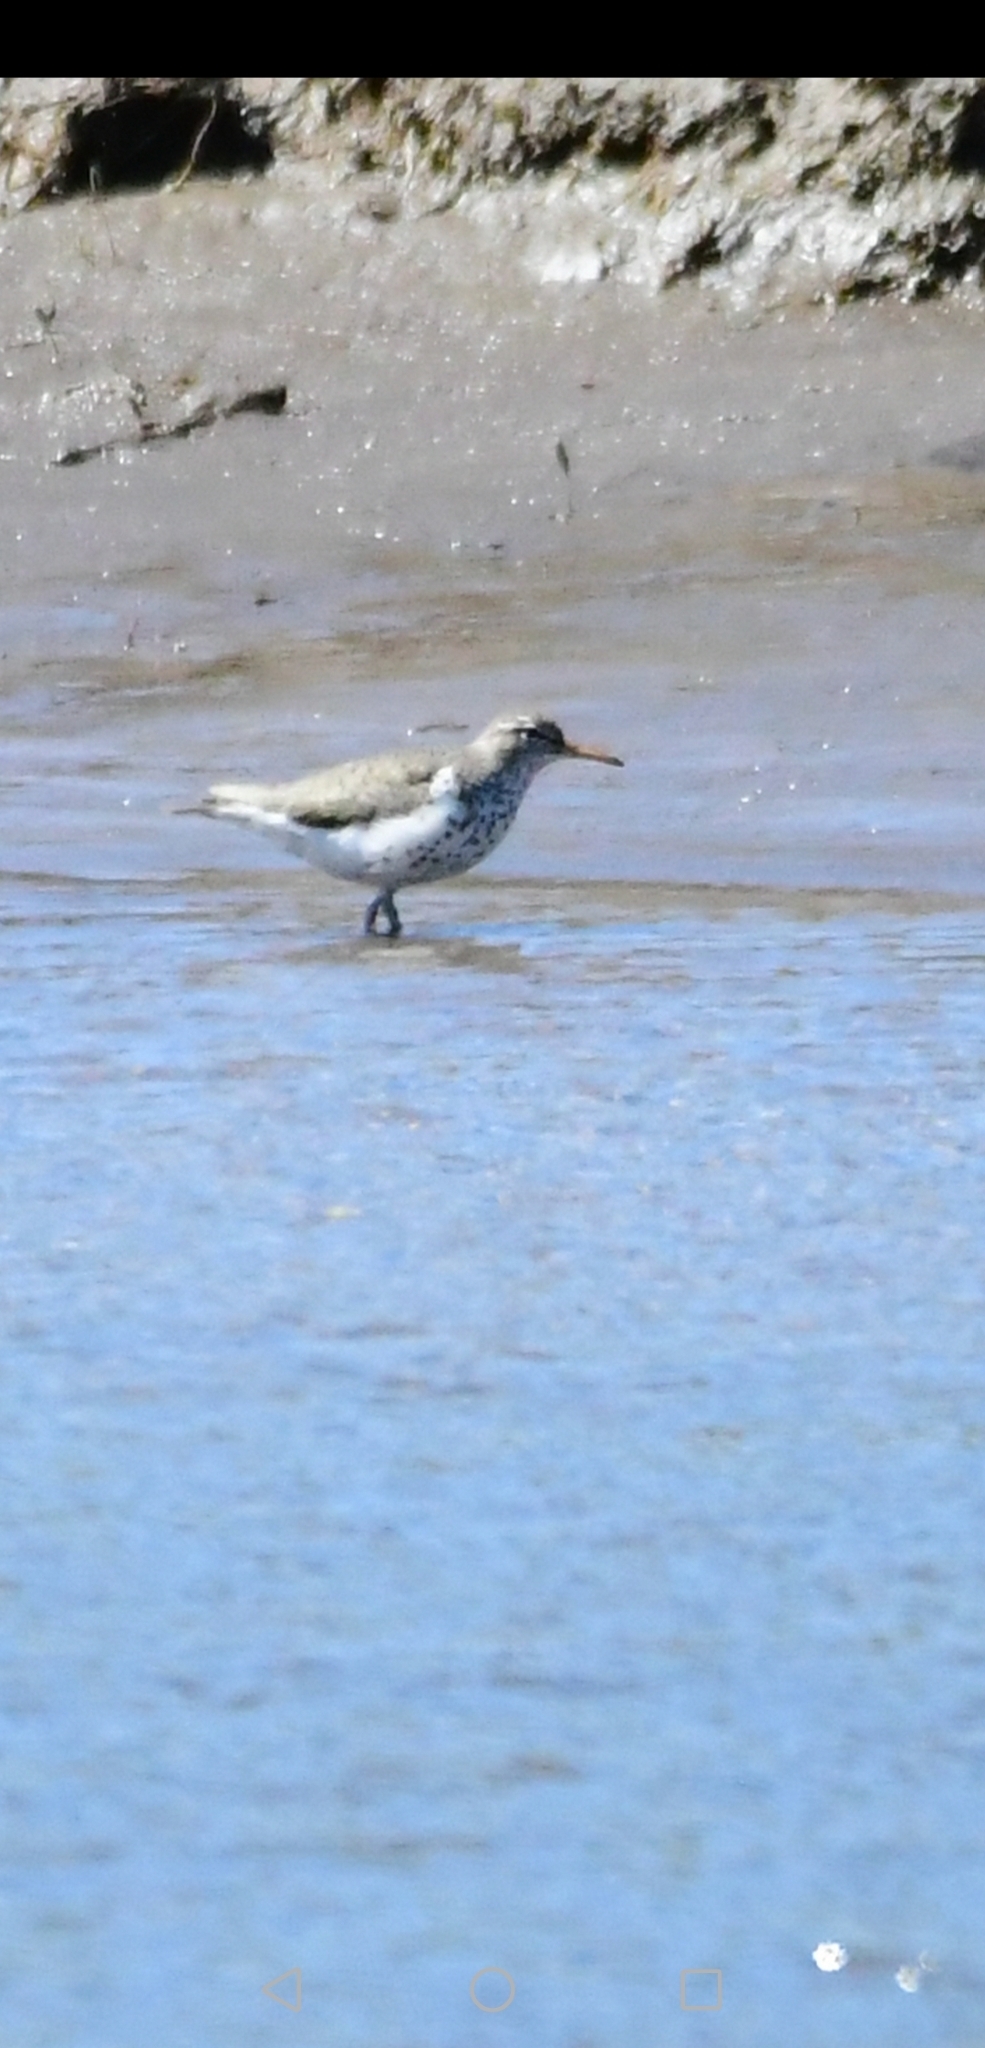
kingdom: Animalia
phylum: Chordata
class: Aves
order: Charadriiformes
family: Scolopacidae
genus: Actitis
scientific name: Actitis macularius
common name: Spotted sandpiper
